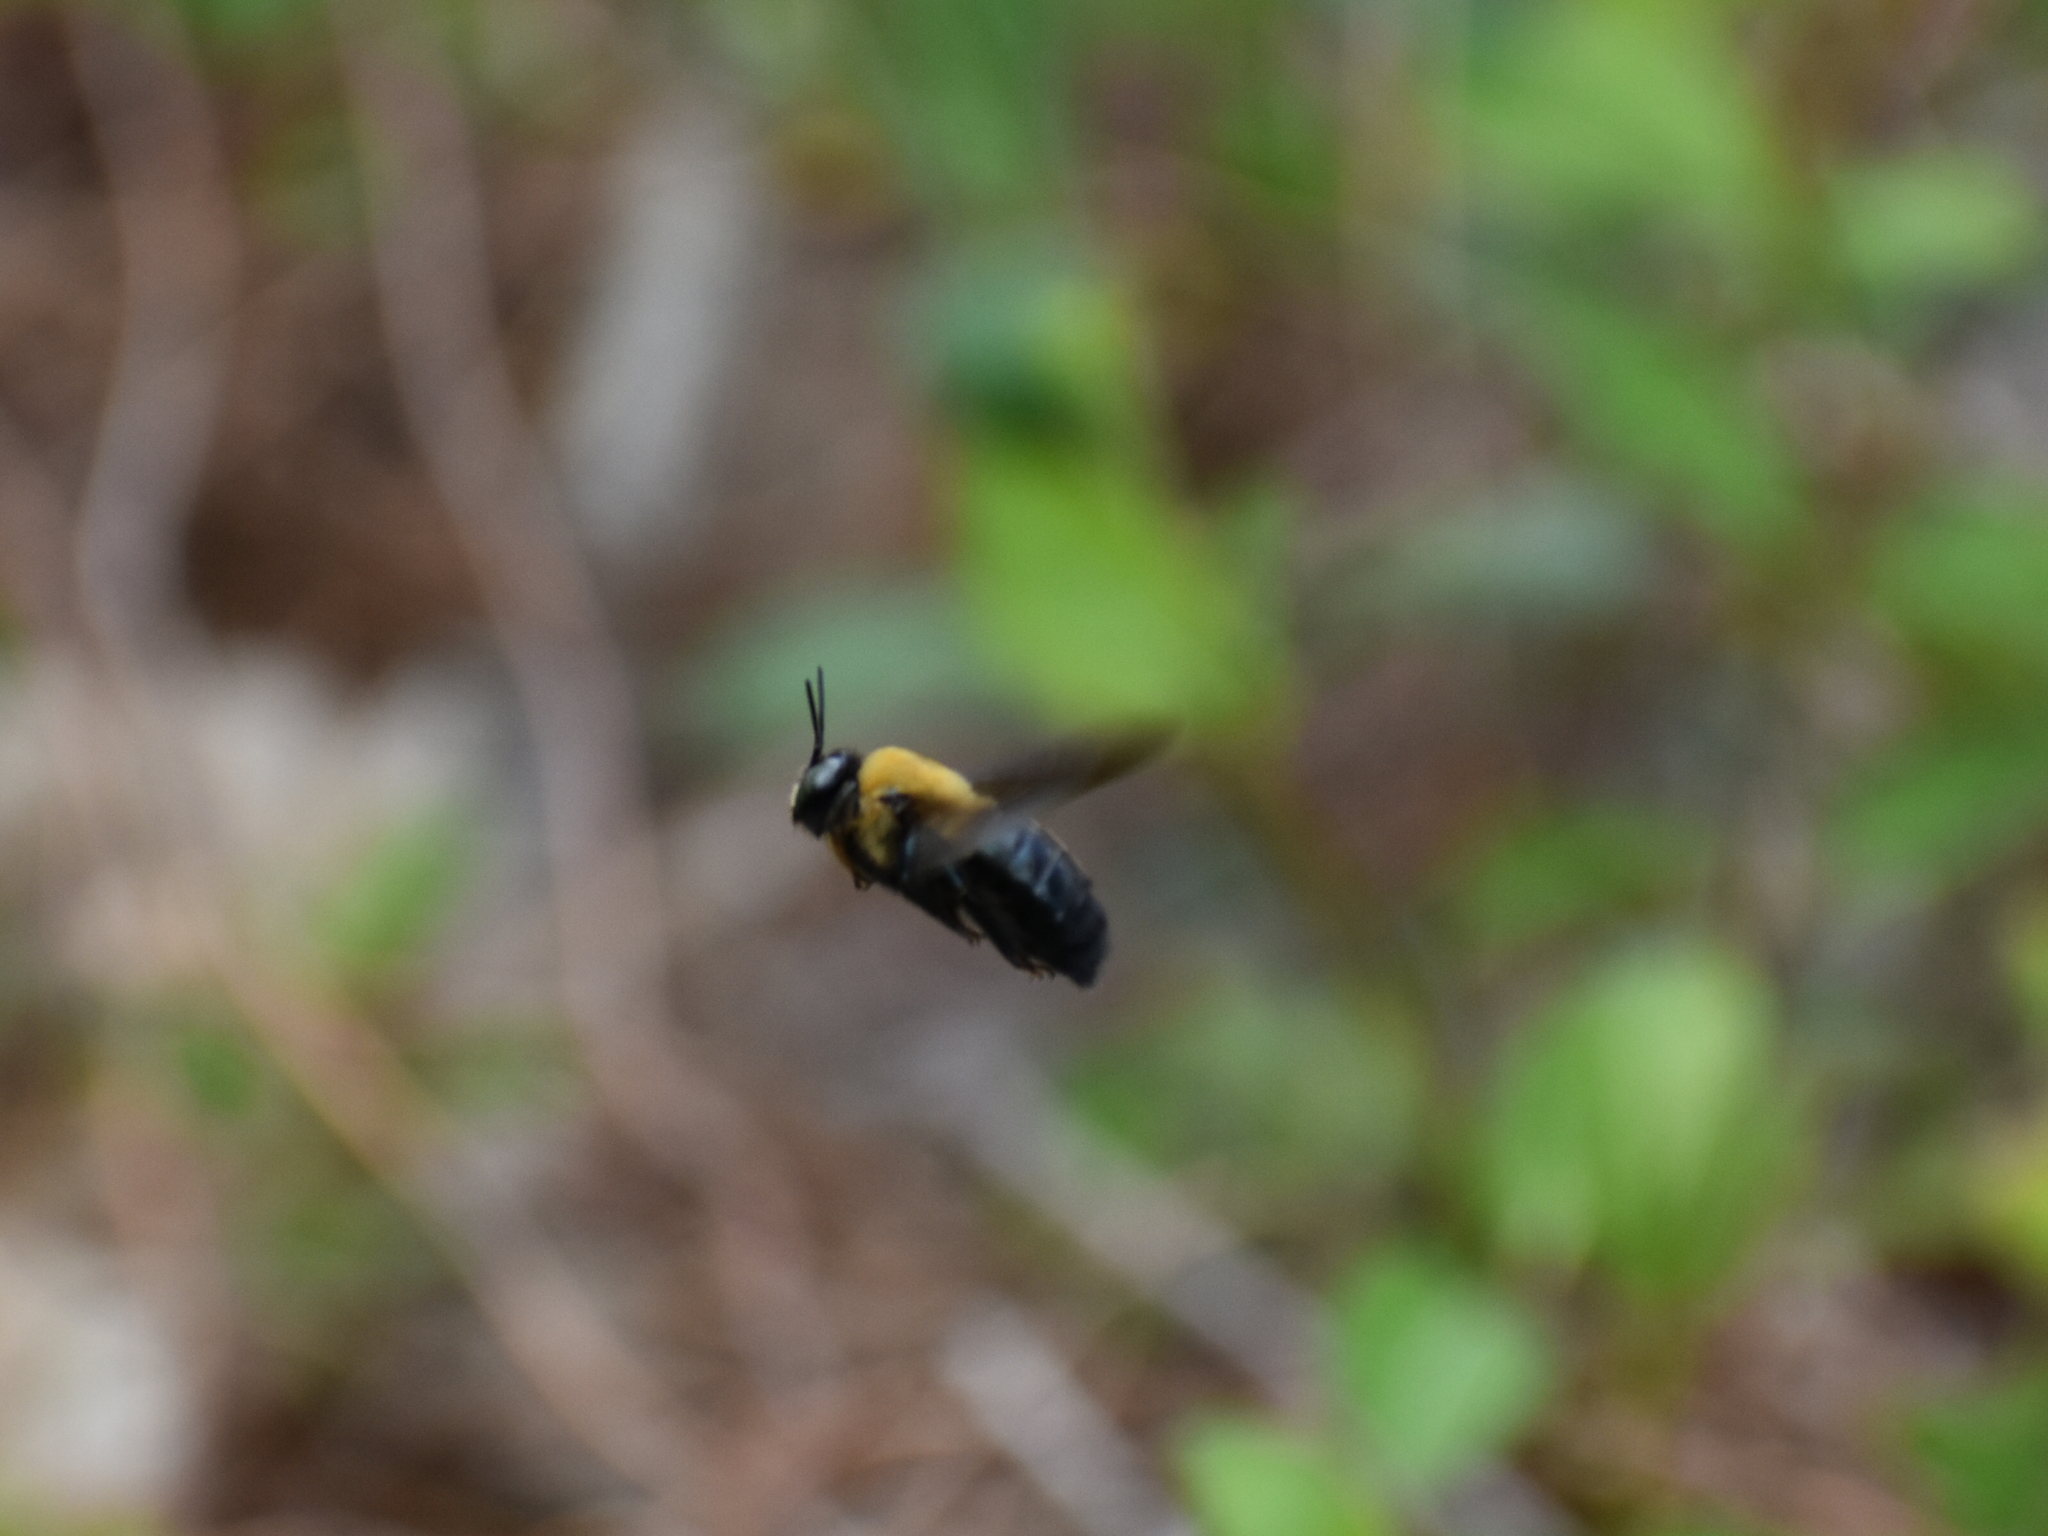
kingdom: Animalia
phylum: Arthropoda
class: Insecta
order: Hymenoptera
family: Apidae
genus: Xylocopa
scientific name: Xylocopa virginica
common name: Carpenter bee
